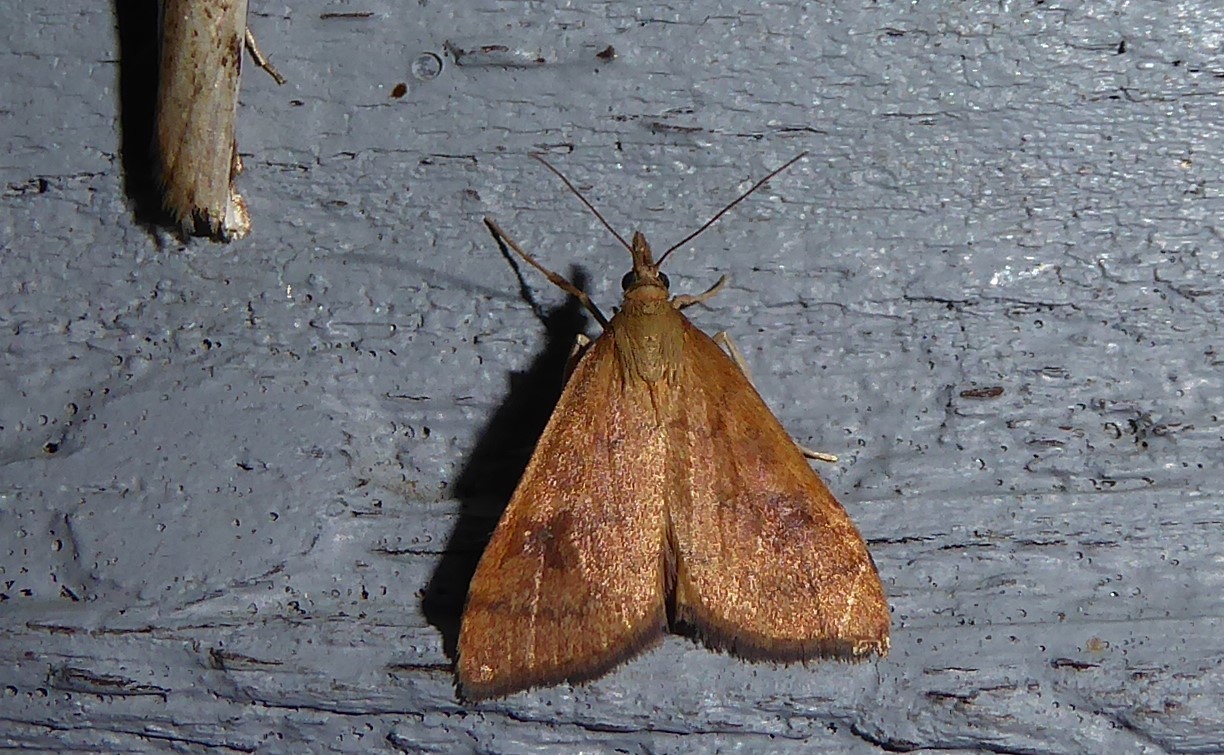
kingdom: Animalia
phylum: Arthropoda
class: Insecta
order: Lepidoptera
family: Crambidae
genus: Udea
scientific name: Udea Mnesictena flavidalis
